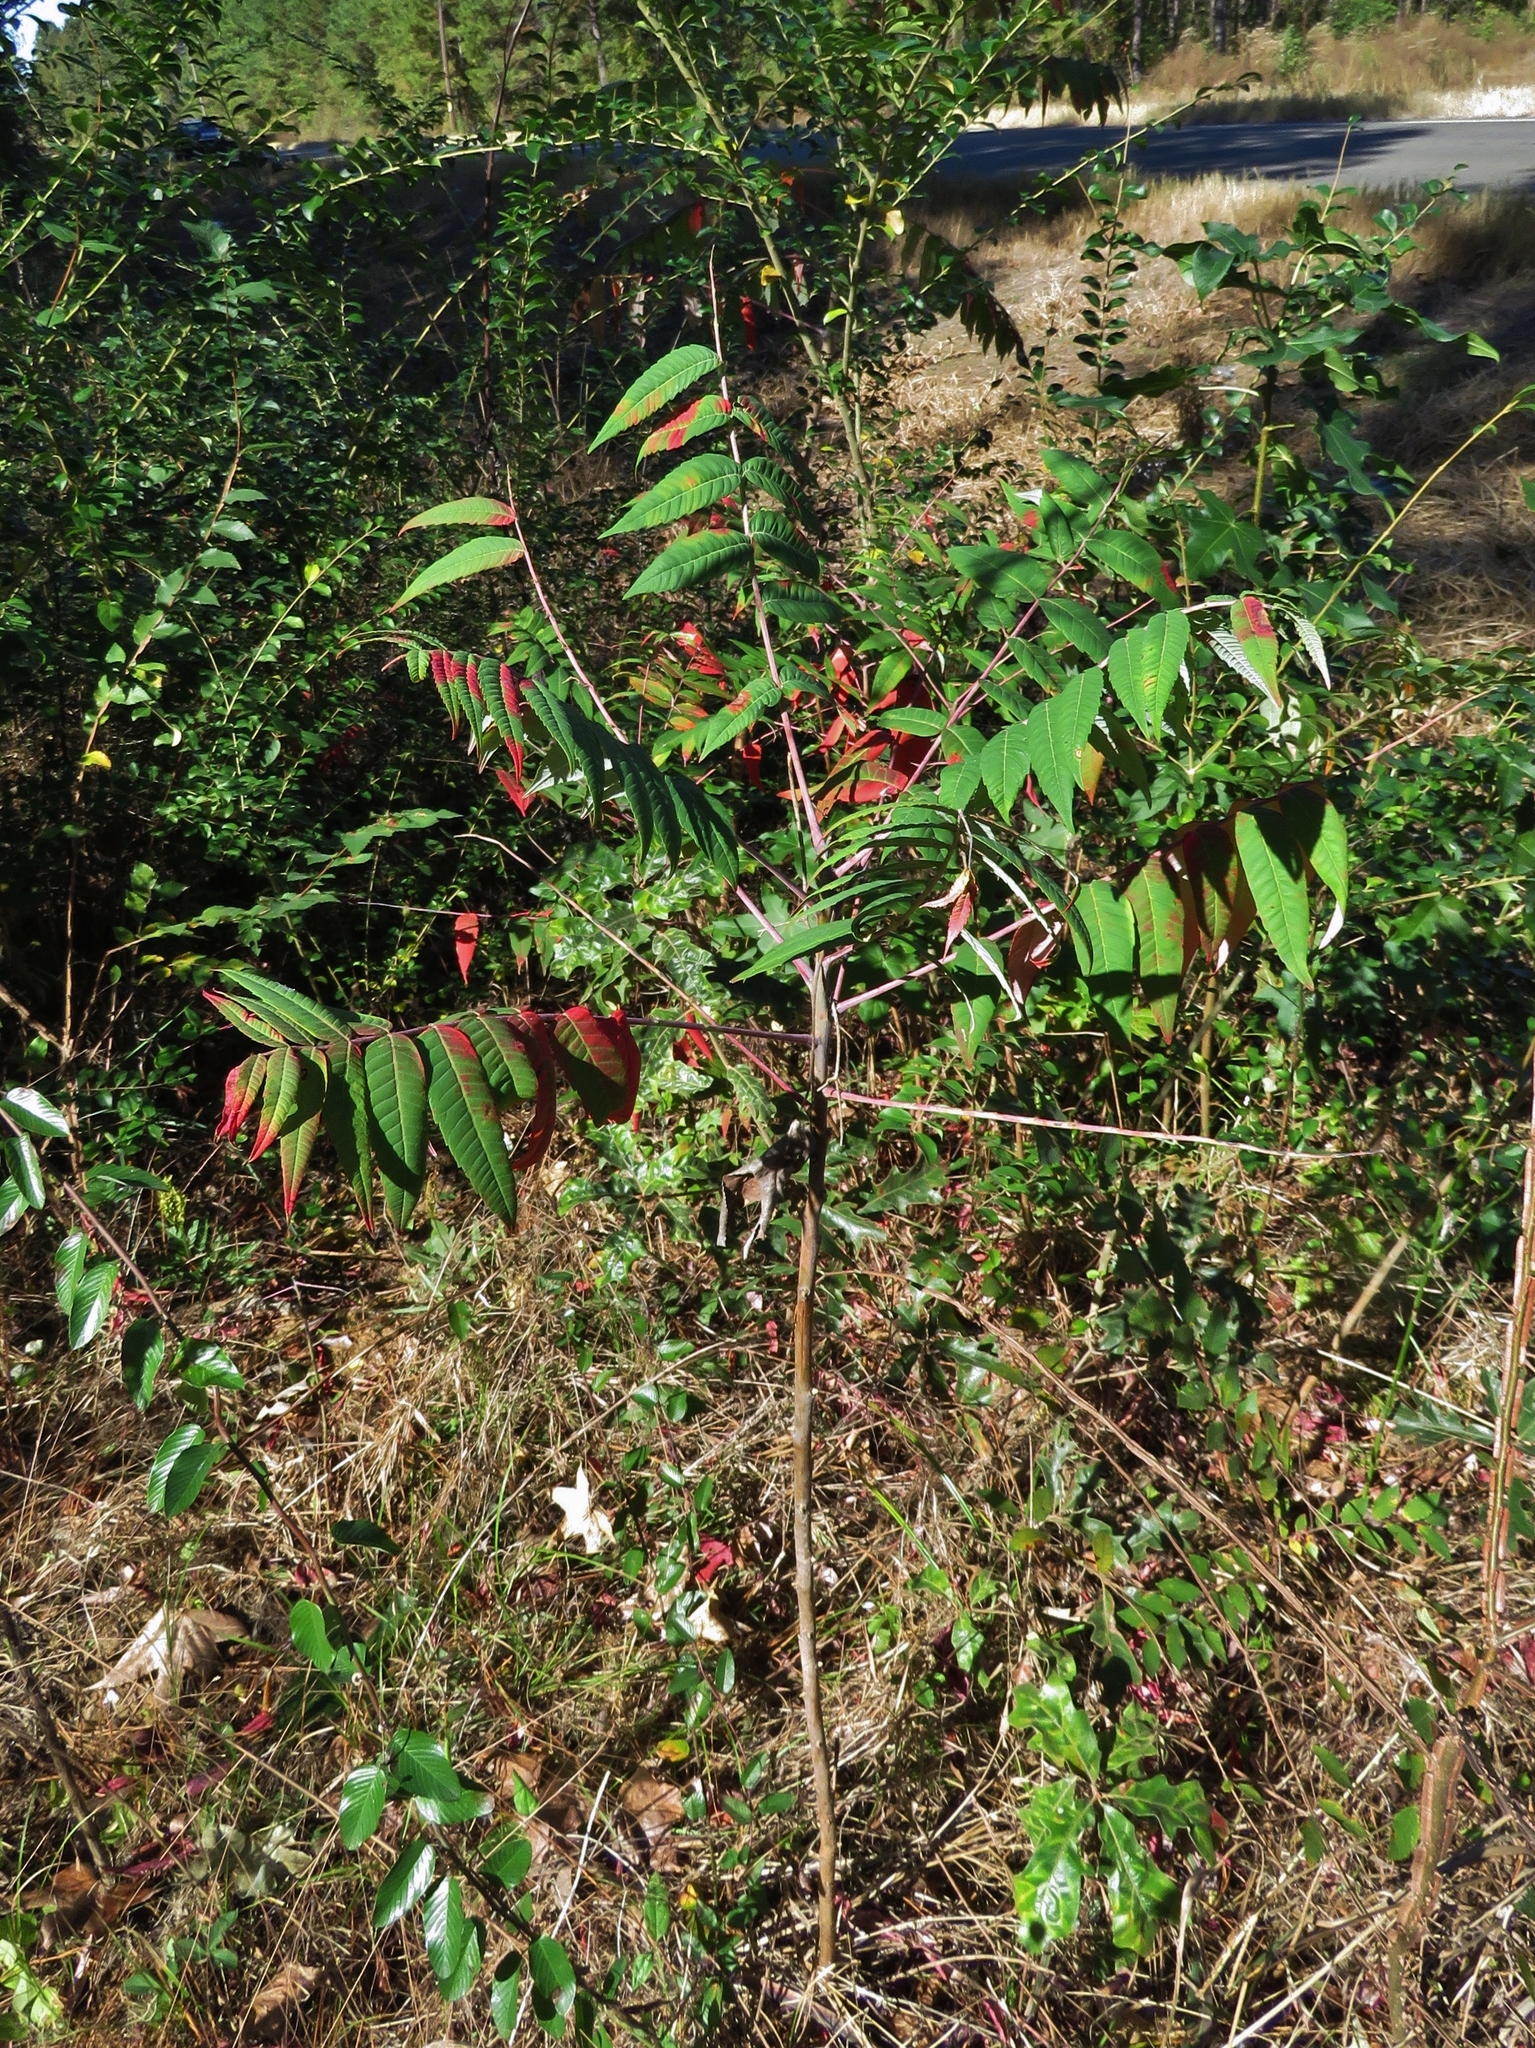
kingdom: Plantae
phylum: Tracheophyta
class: Magnoliopsida
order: Sapindales
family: Anacardiaceae
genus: Rhus
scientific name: Rhus glabra
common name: Scarlet sumac
